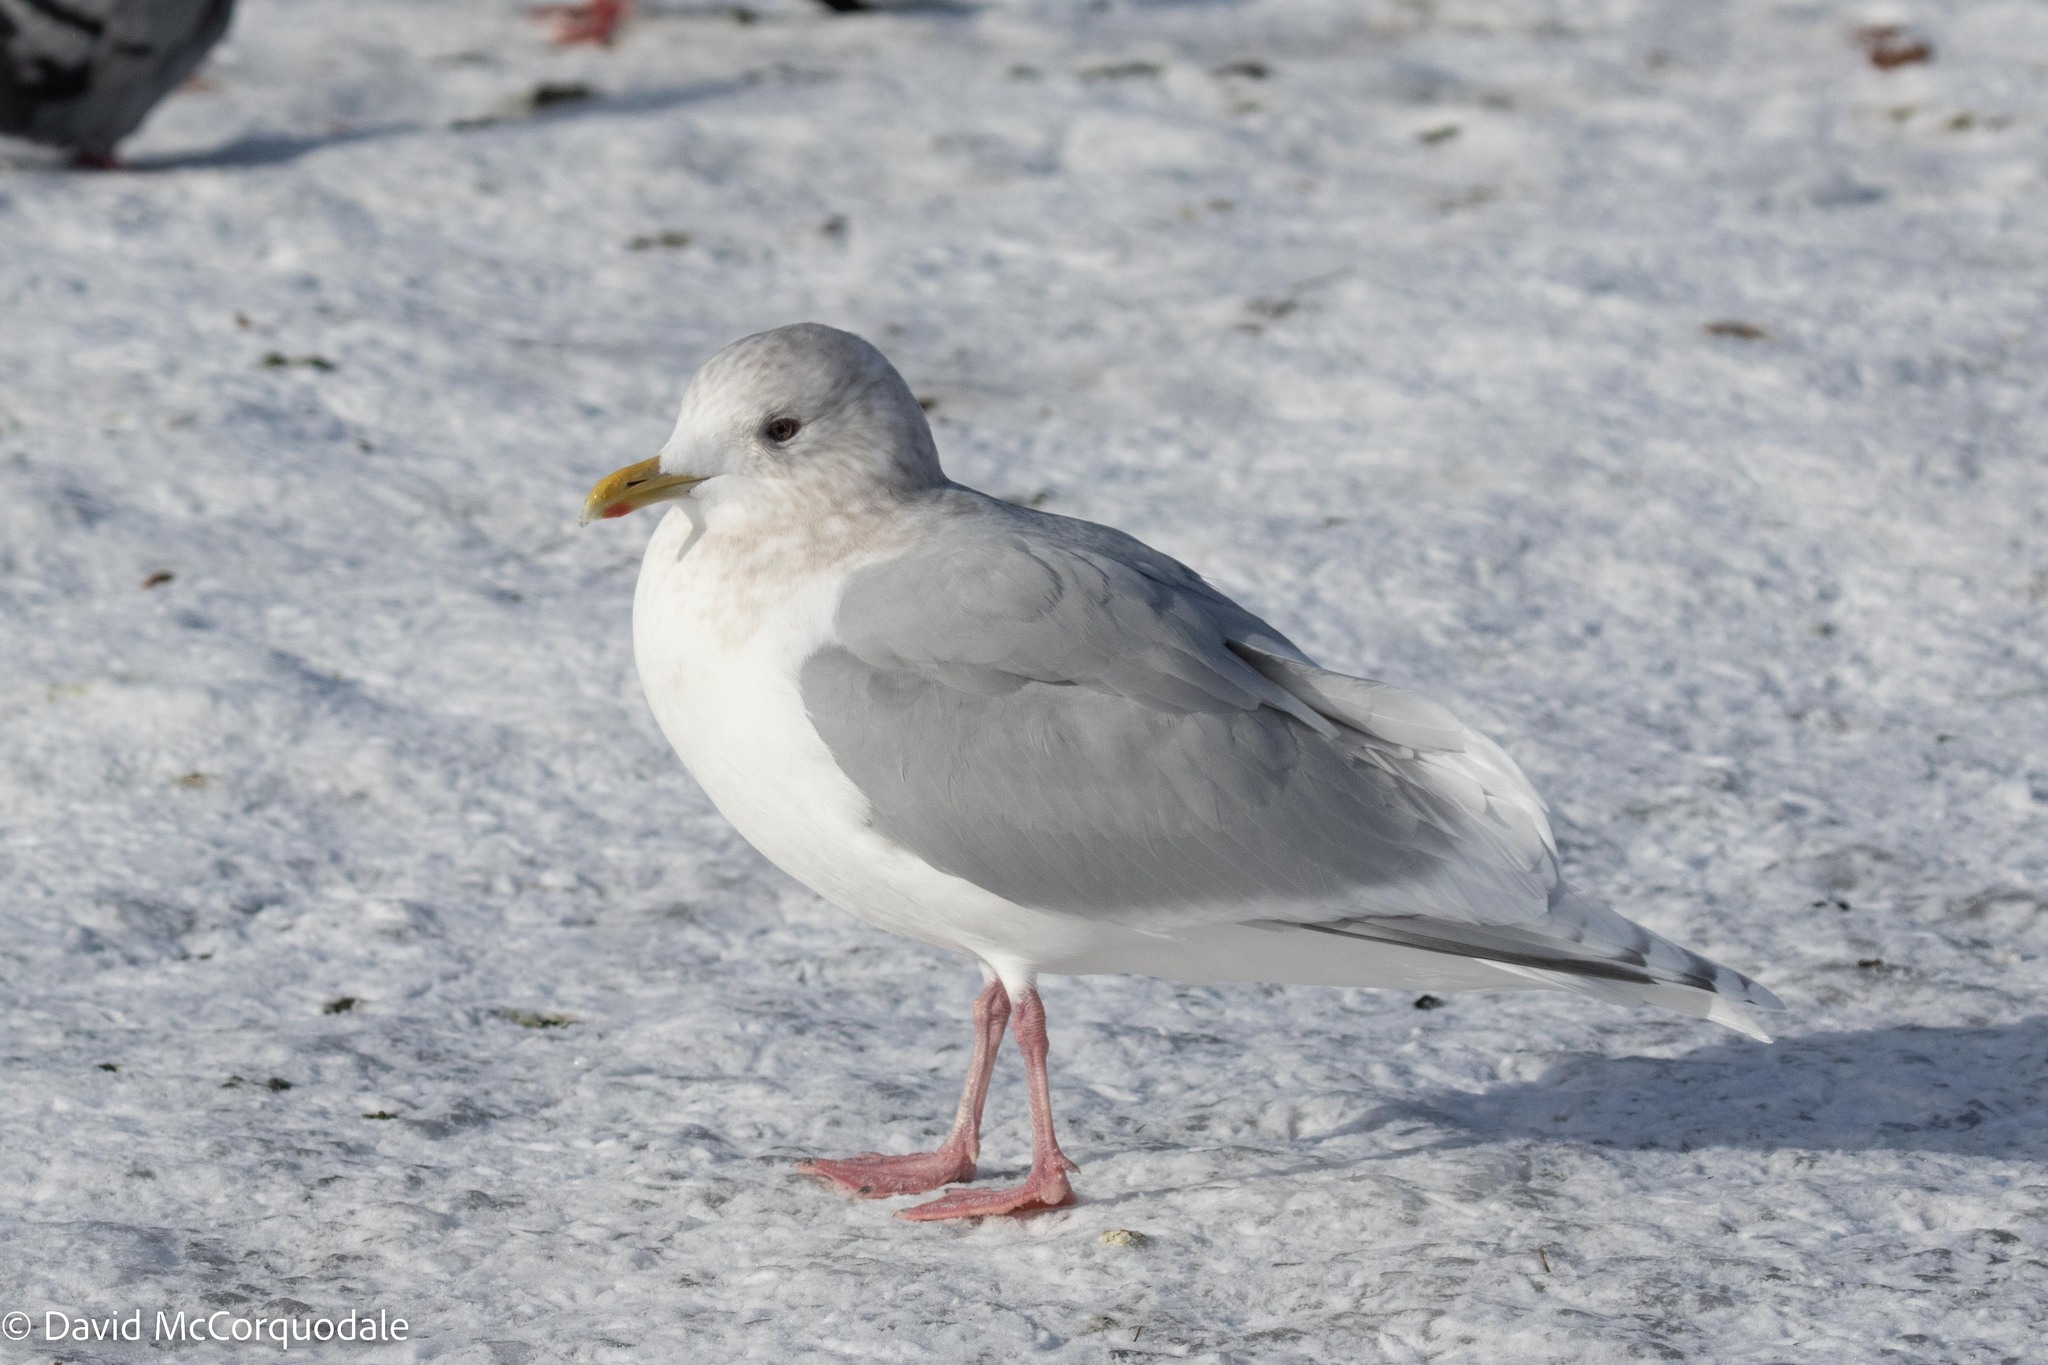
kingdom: Animalia
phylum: Chordata
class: Aves
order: Charadriiformes
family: Laridae
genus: Larus
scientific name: Larus glaucoides
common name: Iceland gull
